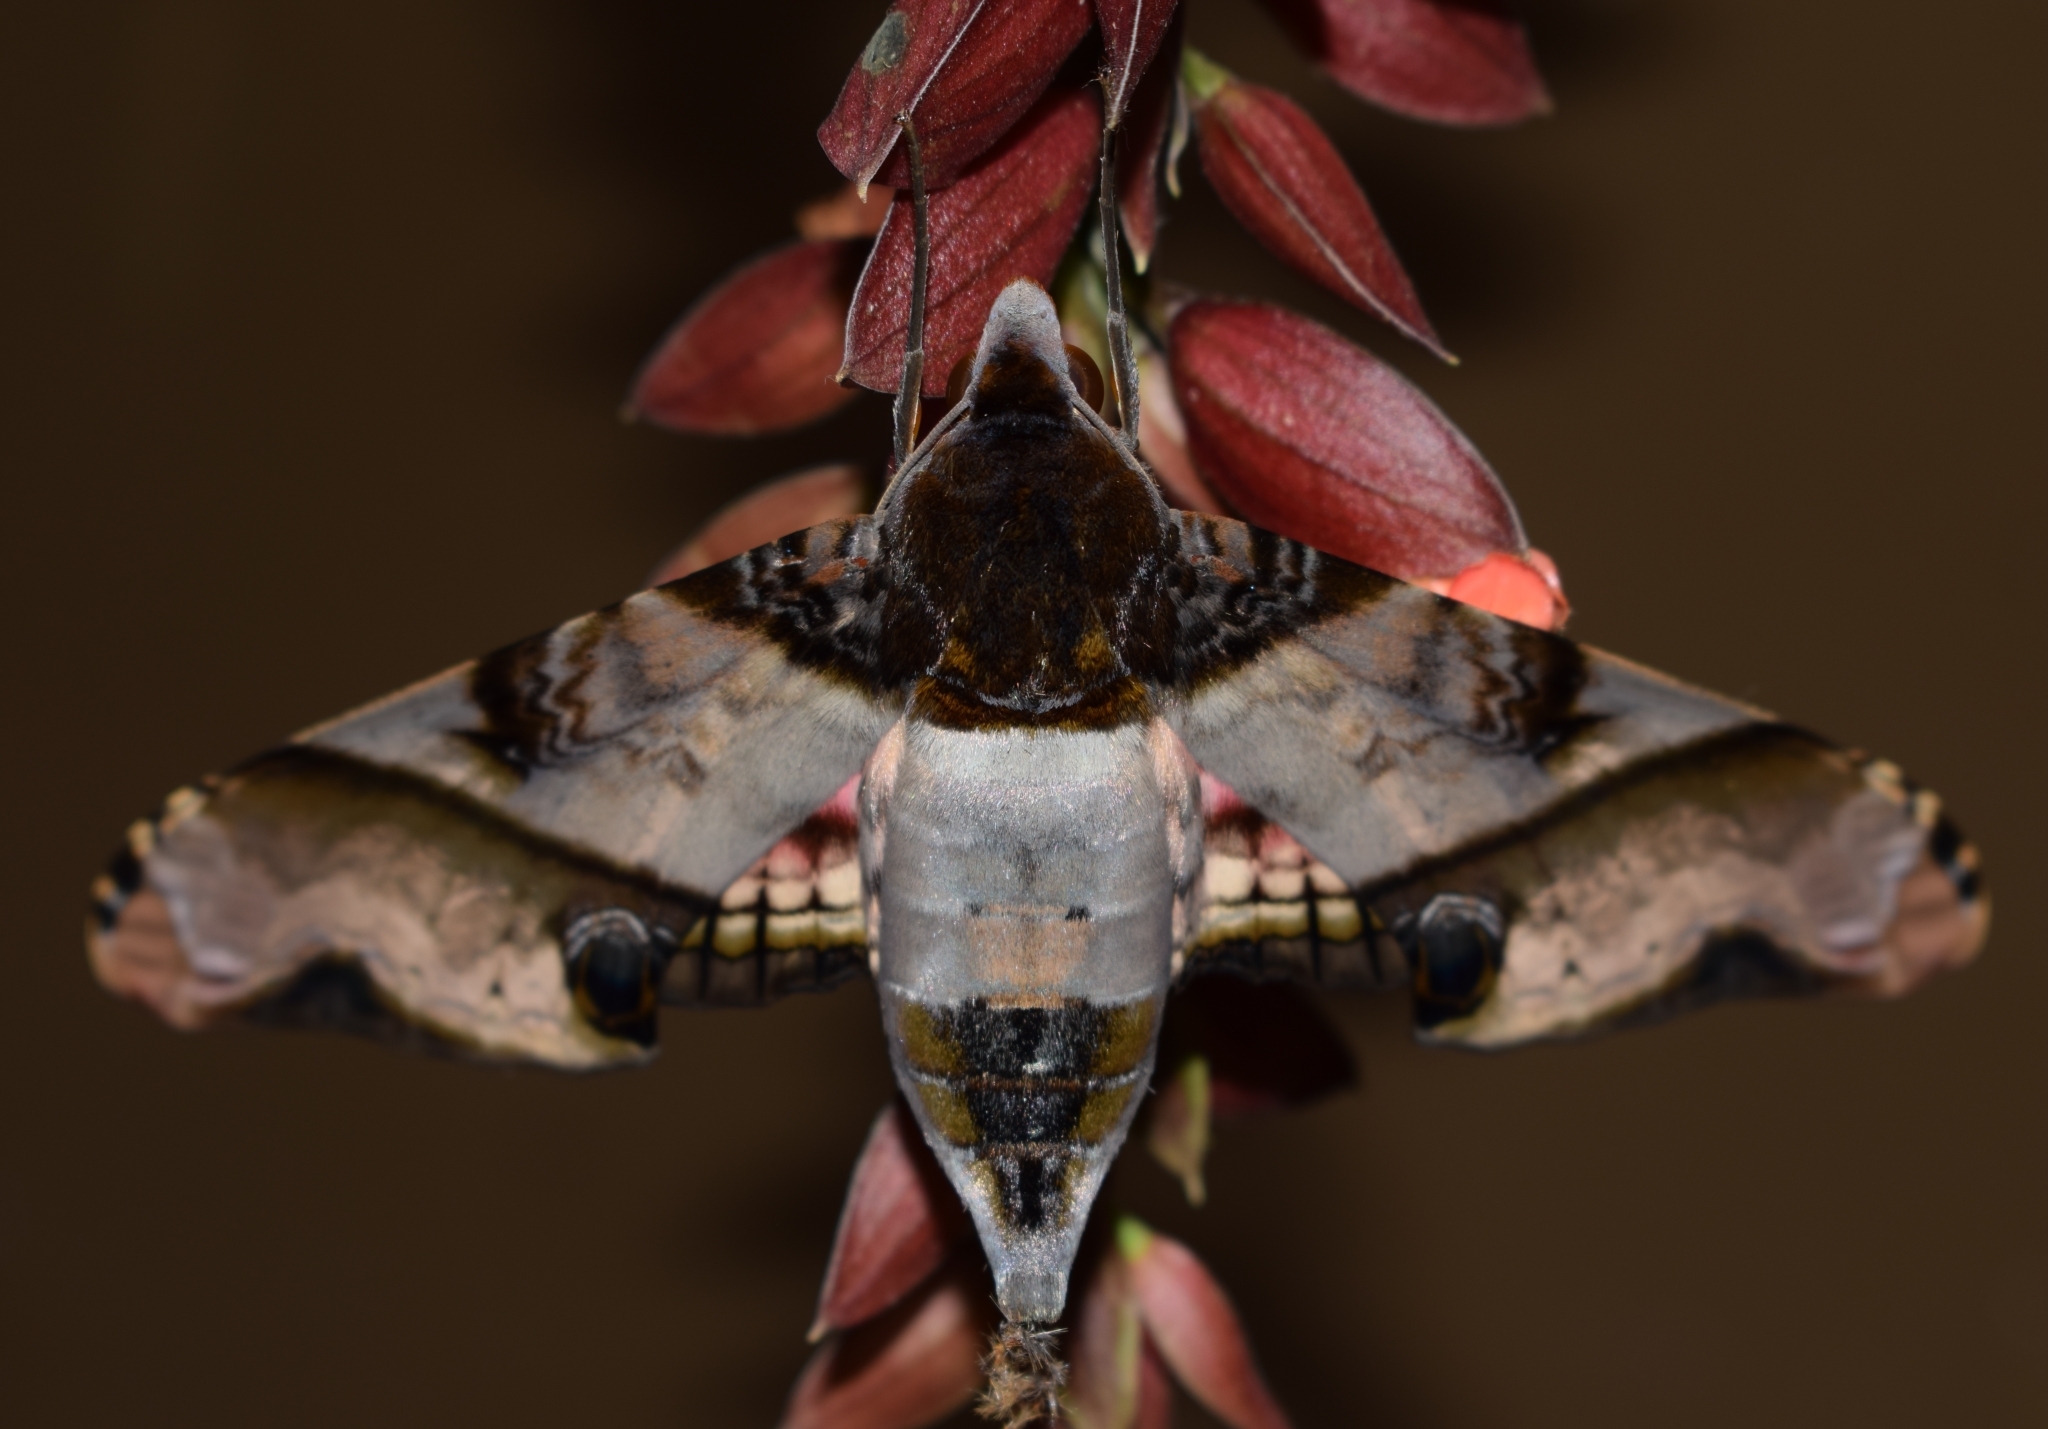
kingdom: Animalia
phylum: Arthropoda
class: Insecta
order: Lepidoptera
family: Sphingidae
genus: Amplypterus
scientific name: Amplypterus panopus
